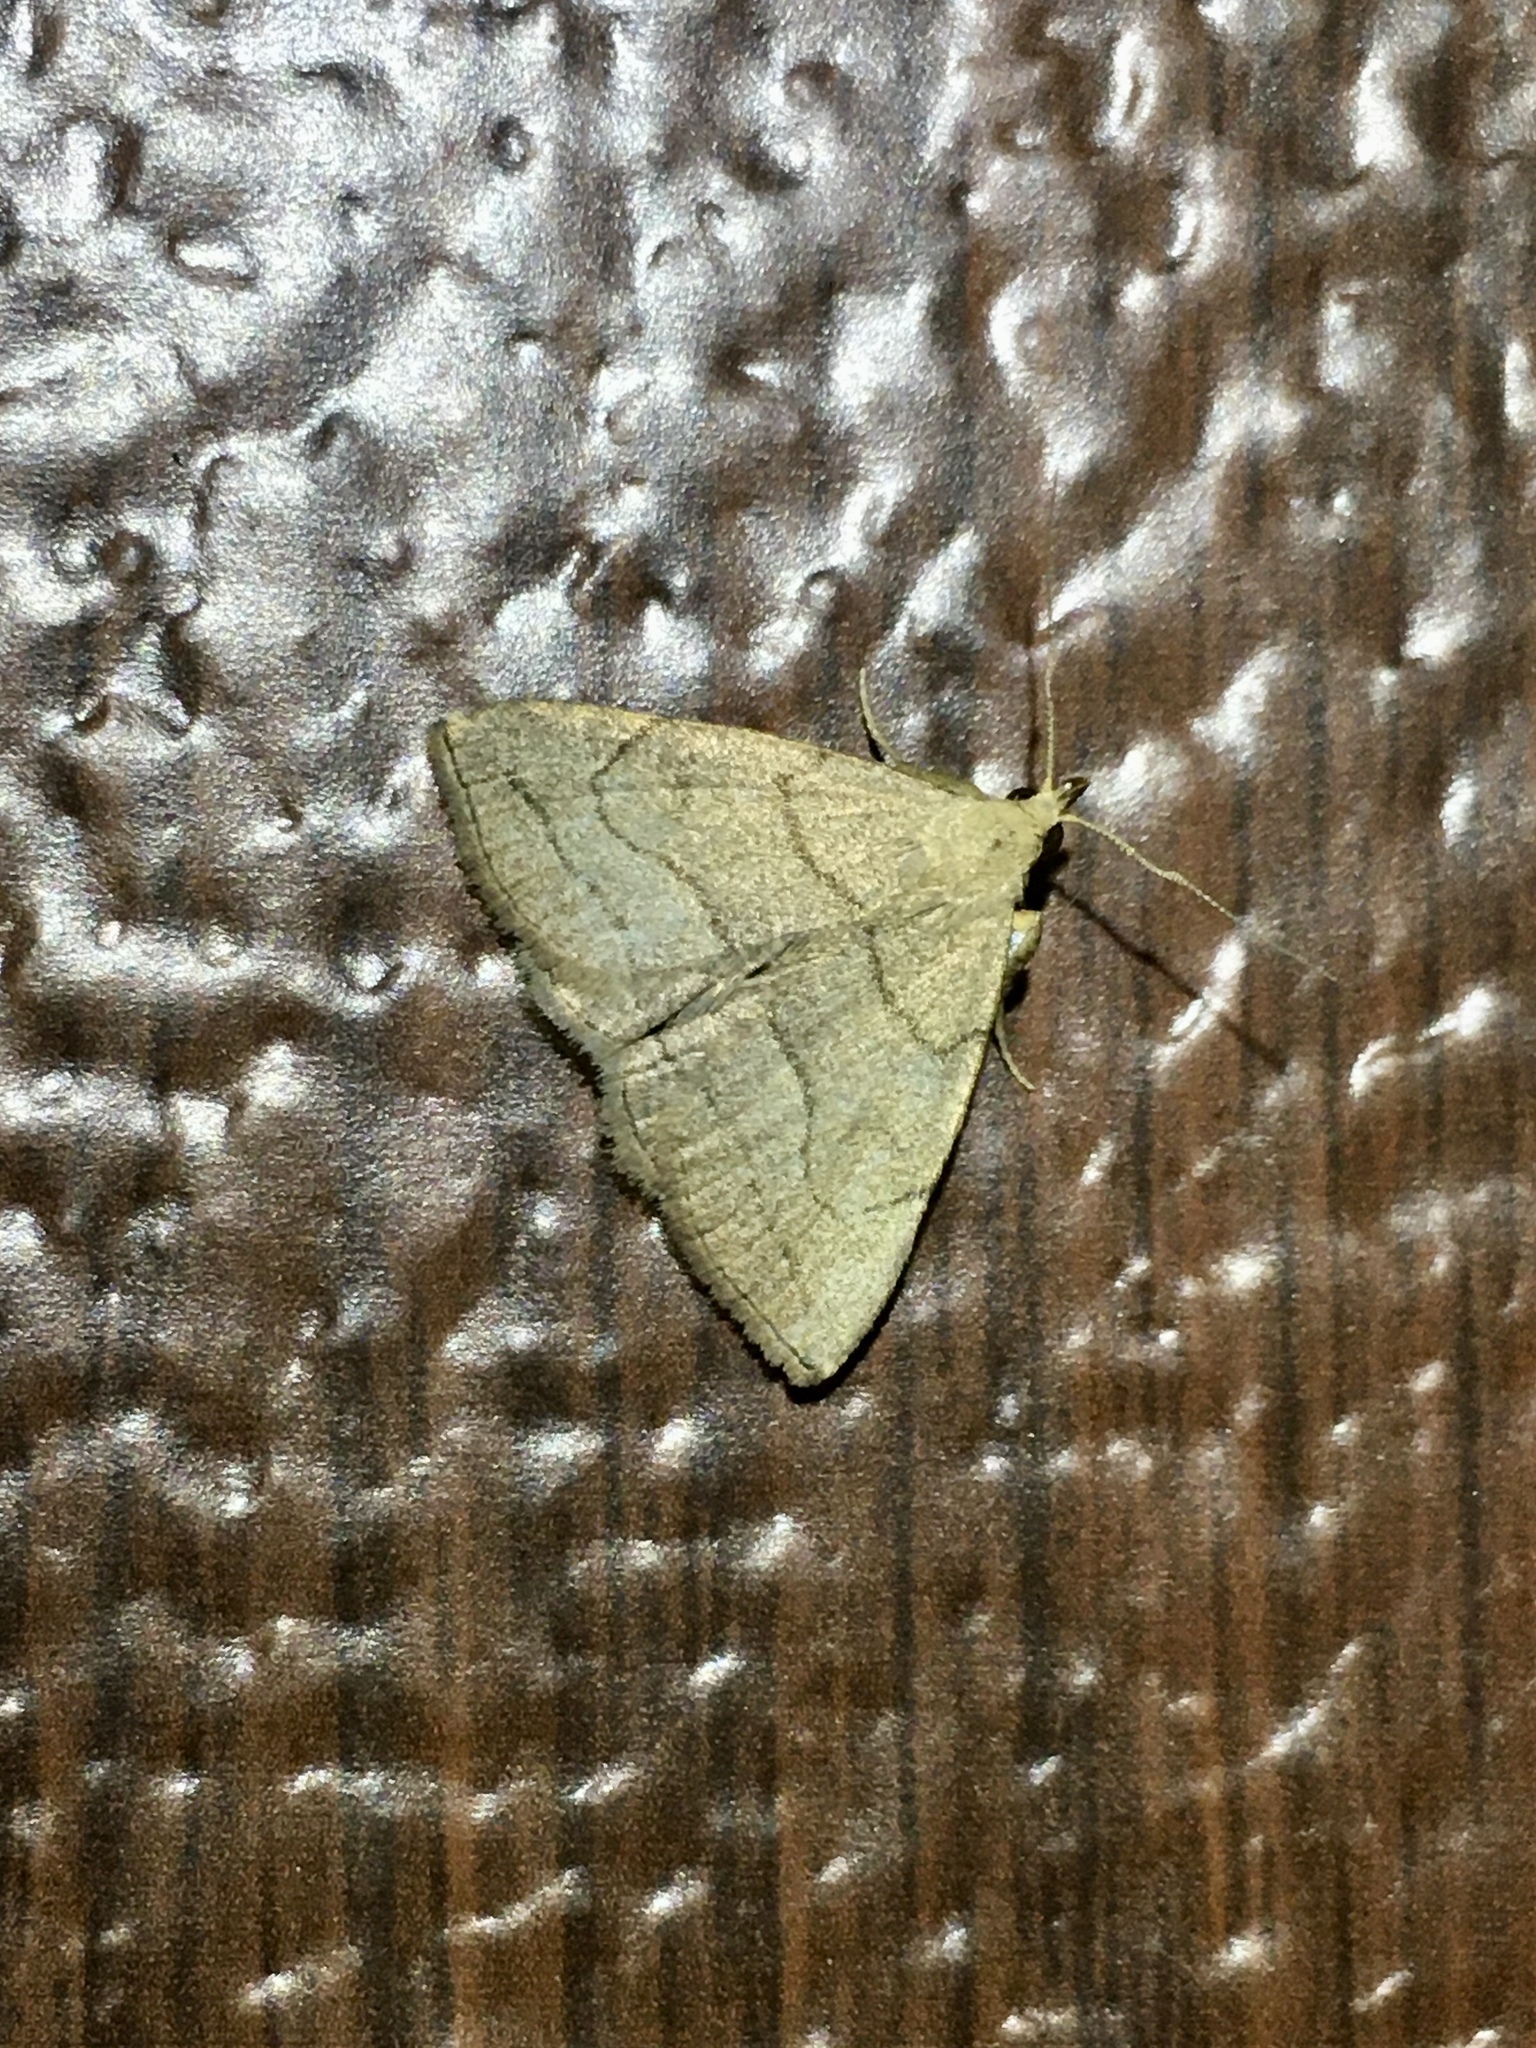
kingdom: Animalia
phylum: Arthropoda
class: Insecta
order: Lepidoptera
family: Erebidae
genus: Zanclognatha
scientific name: Zanclognatha pedipilalis
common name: Grayish fan-foot
